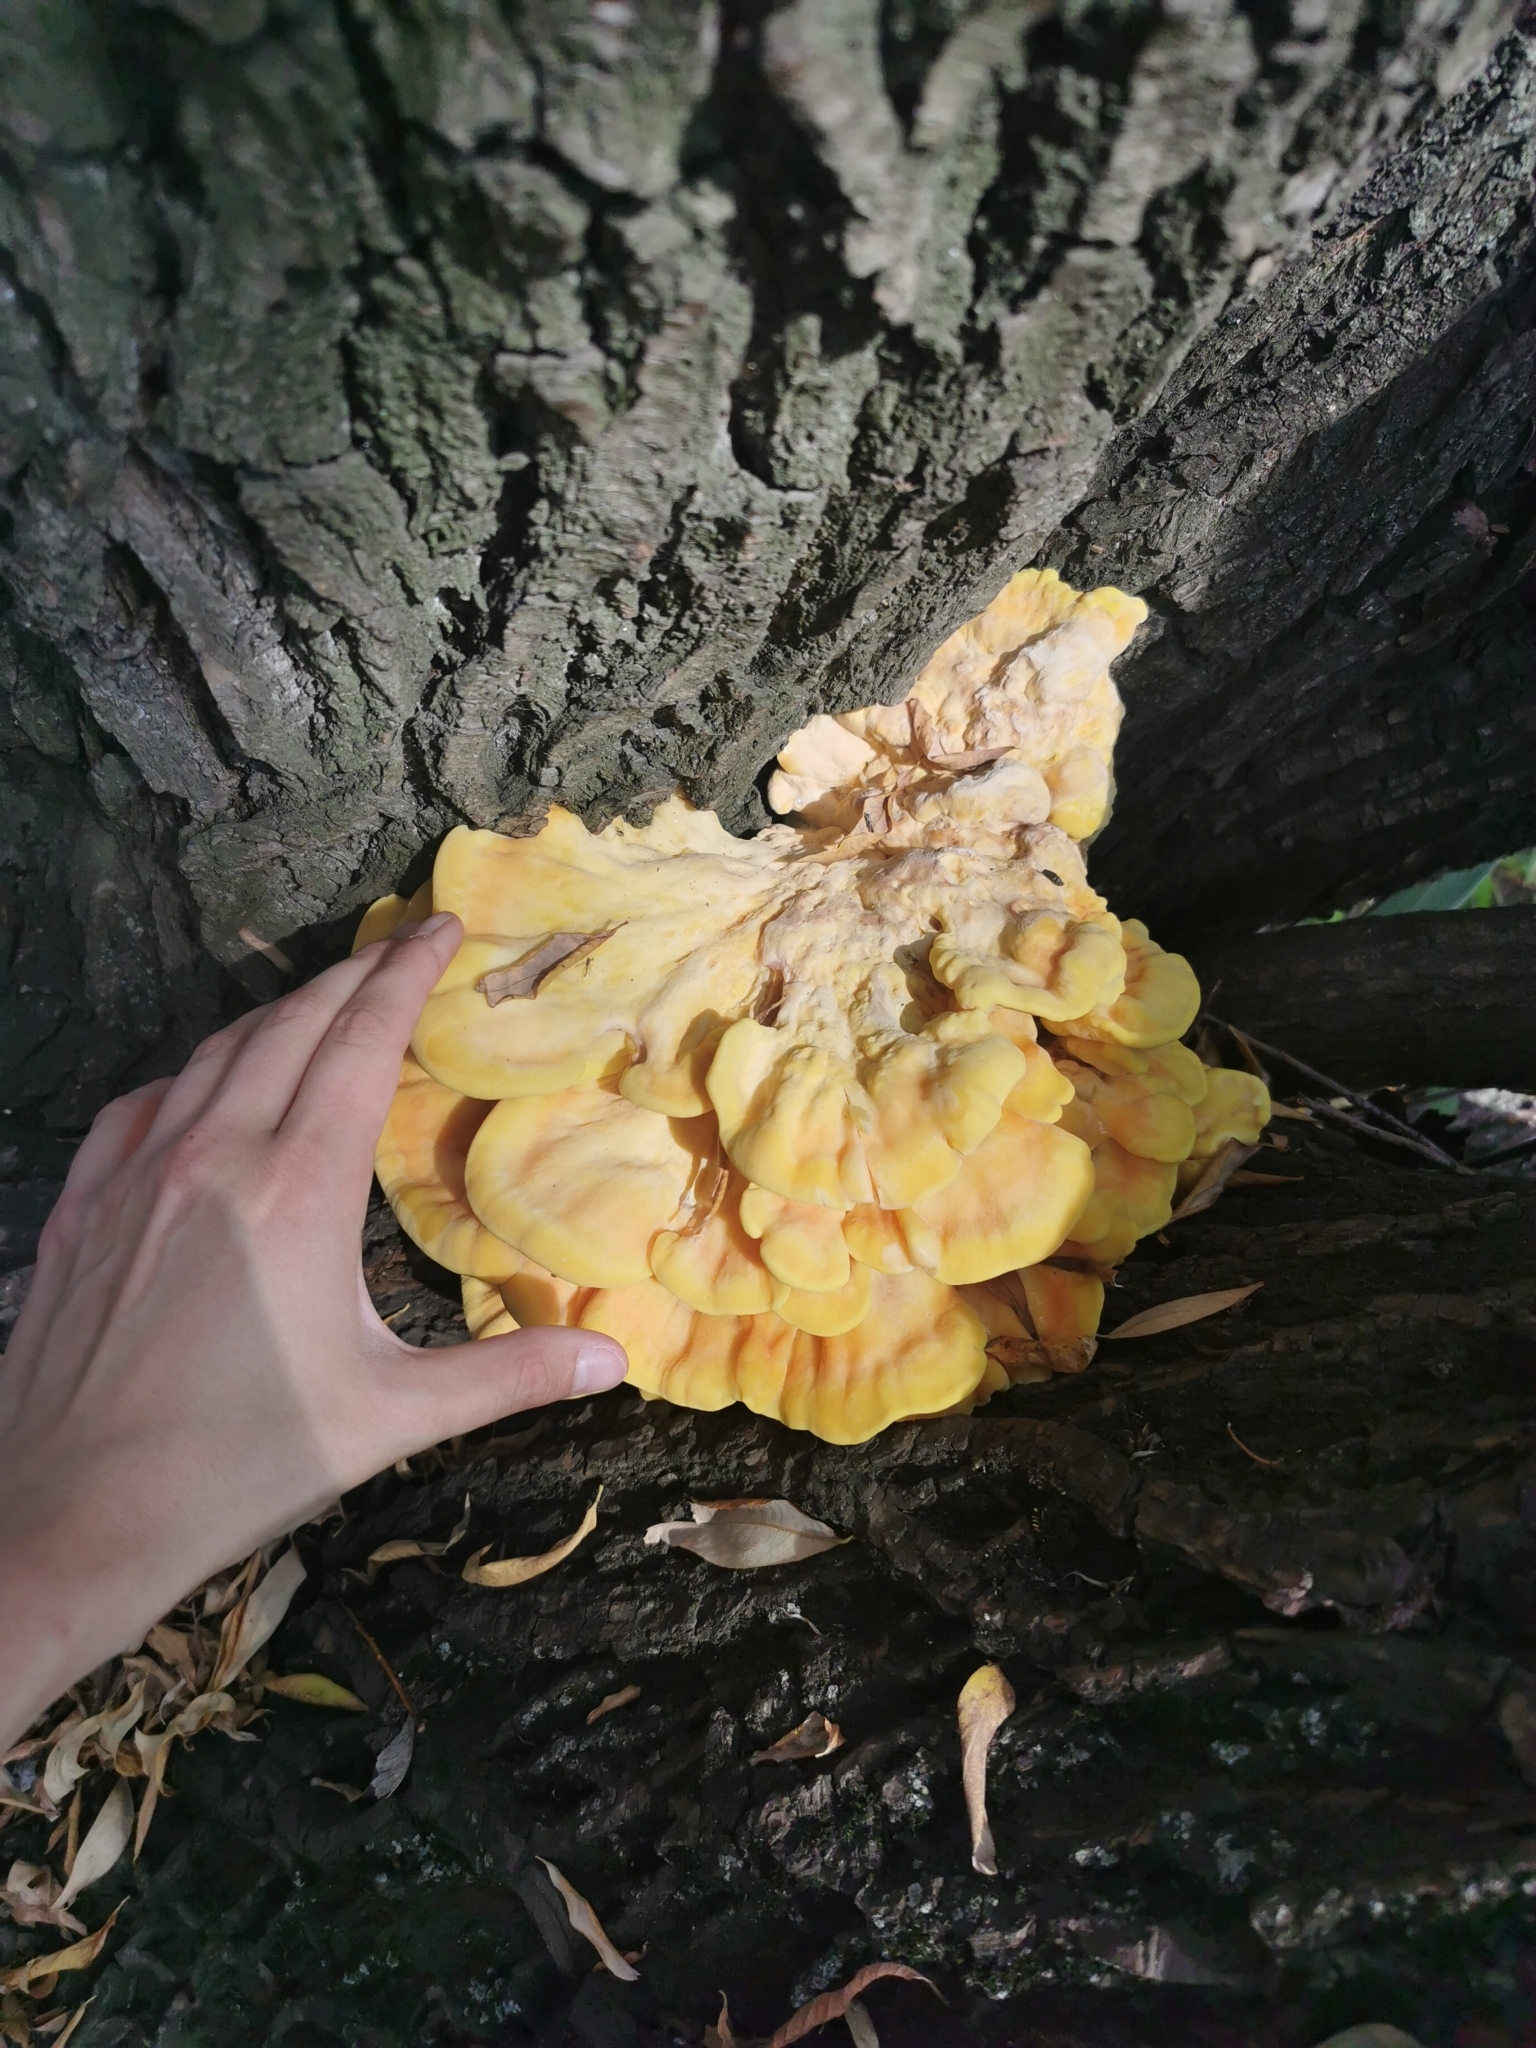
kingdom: Fungi
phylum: Basidiomycota
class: Agaricomycetes
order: Polyporales
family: Laetiporaceae
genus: Laetiporus
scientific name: Laetiporus sulphureus
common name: Chicken of the woods
